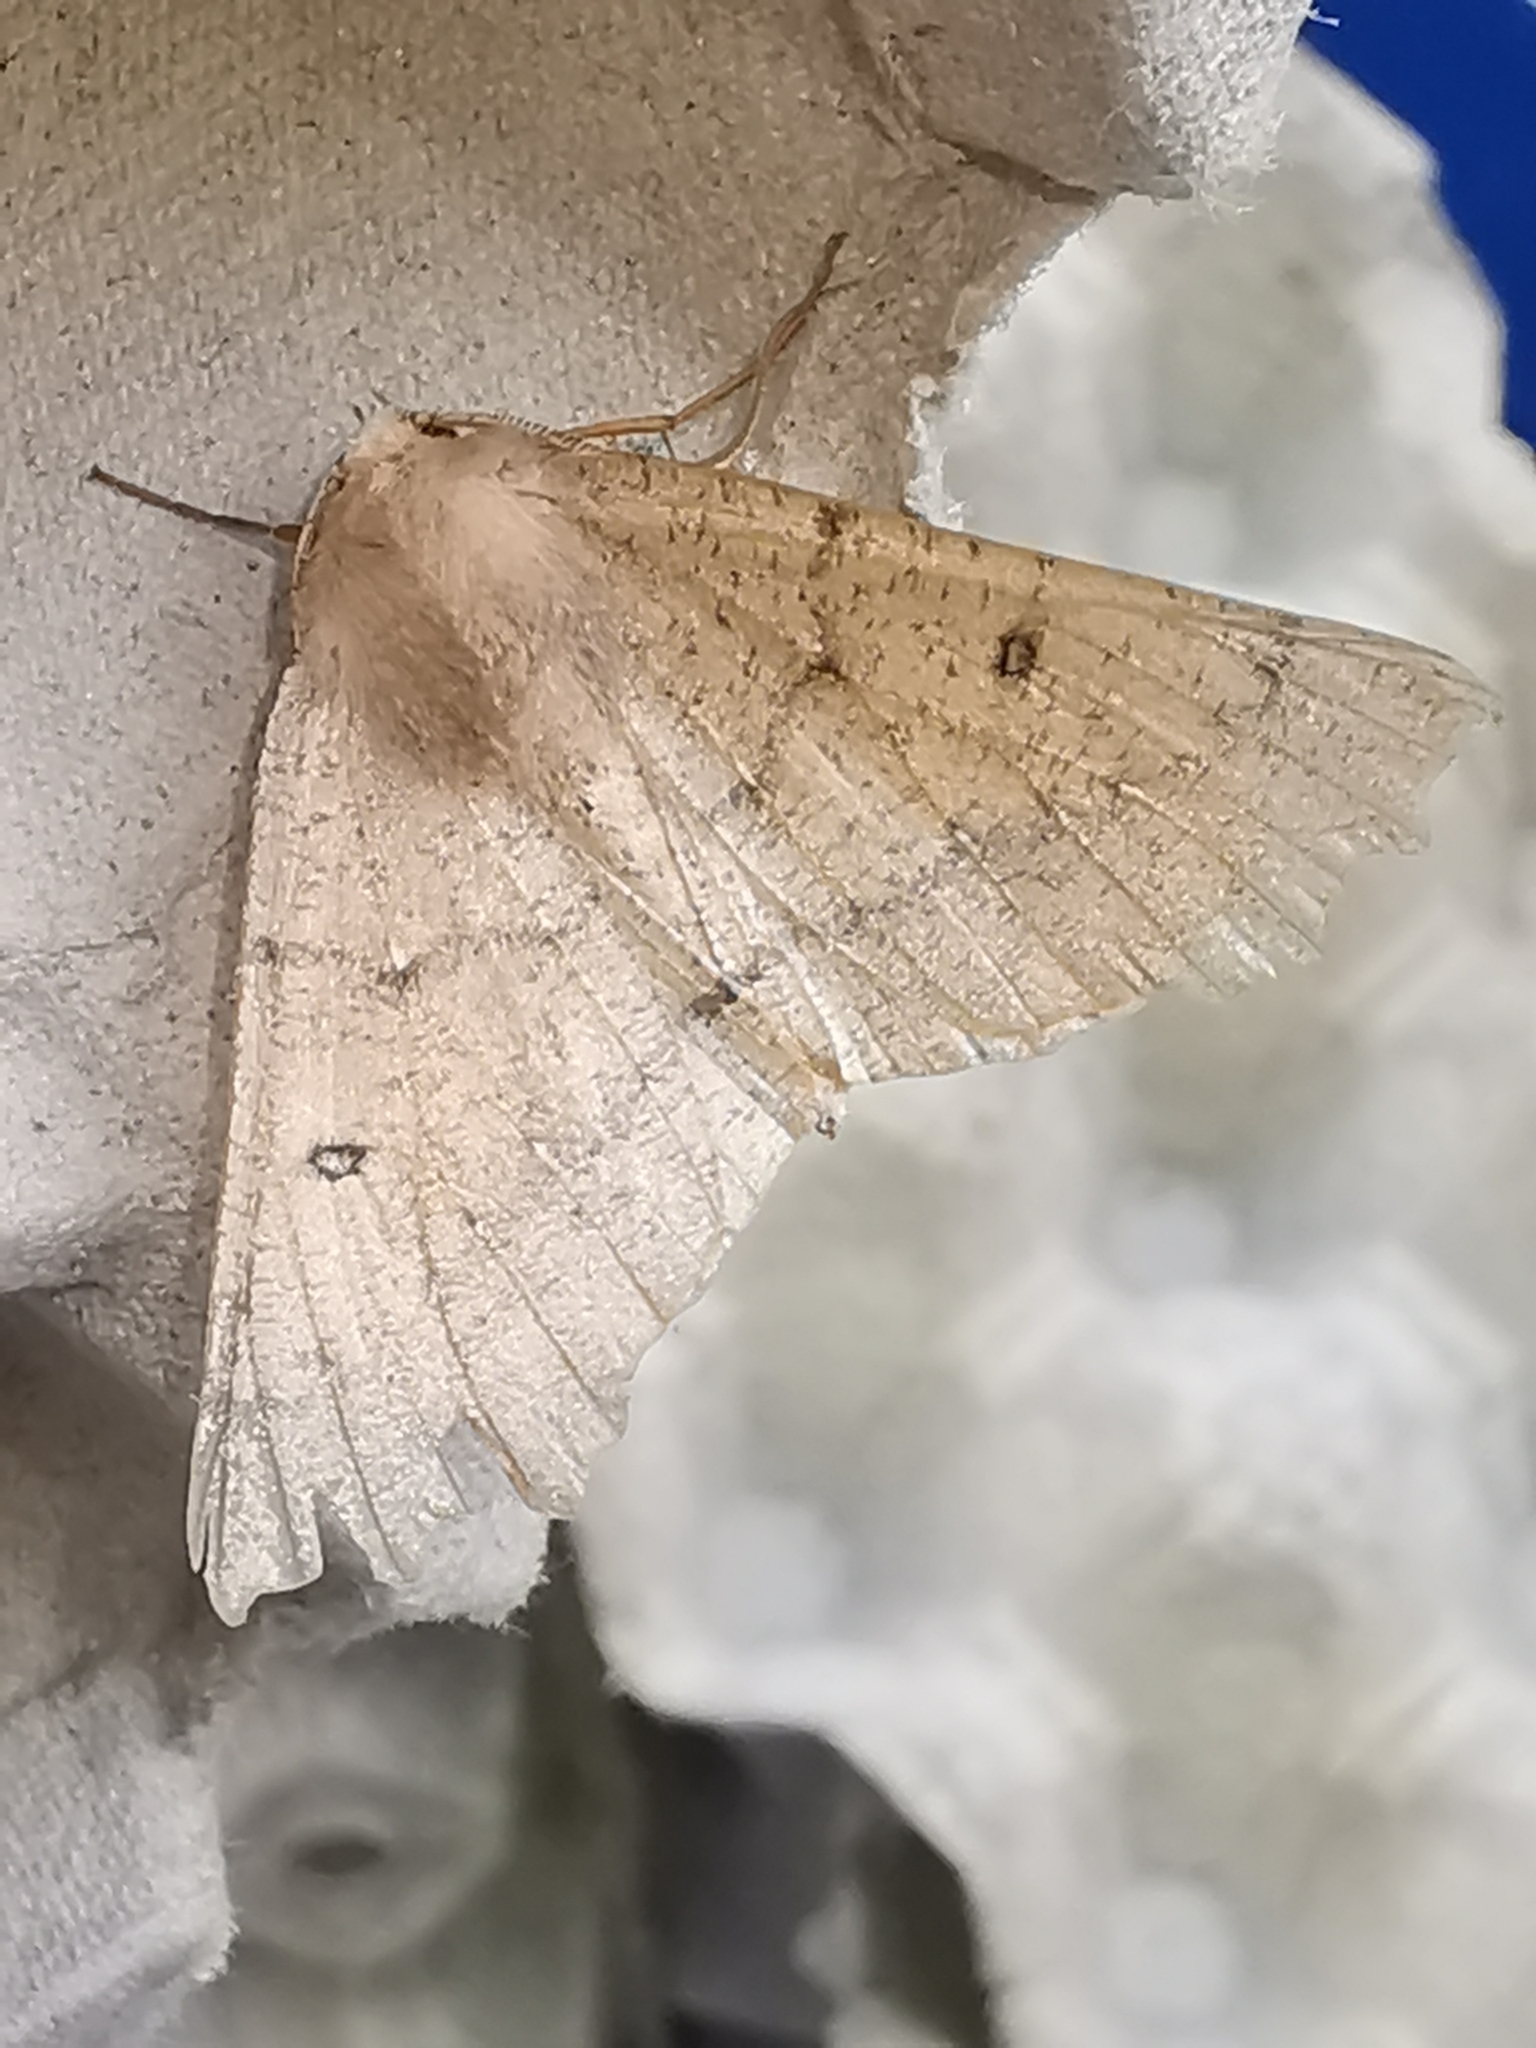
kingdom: Animalia
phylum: Arthropoda
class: Insecta
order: Lepidoptera
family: Geometridae
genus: Odontopera
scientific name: Odontopera bidentata
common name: Scalloped hazel
